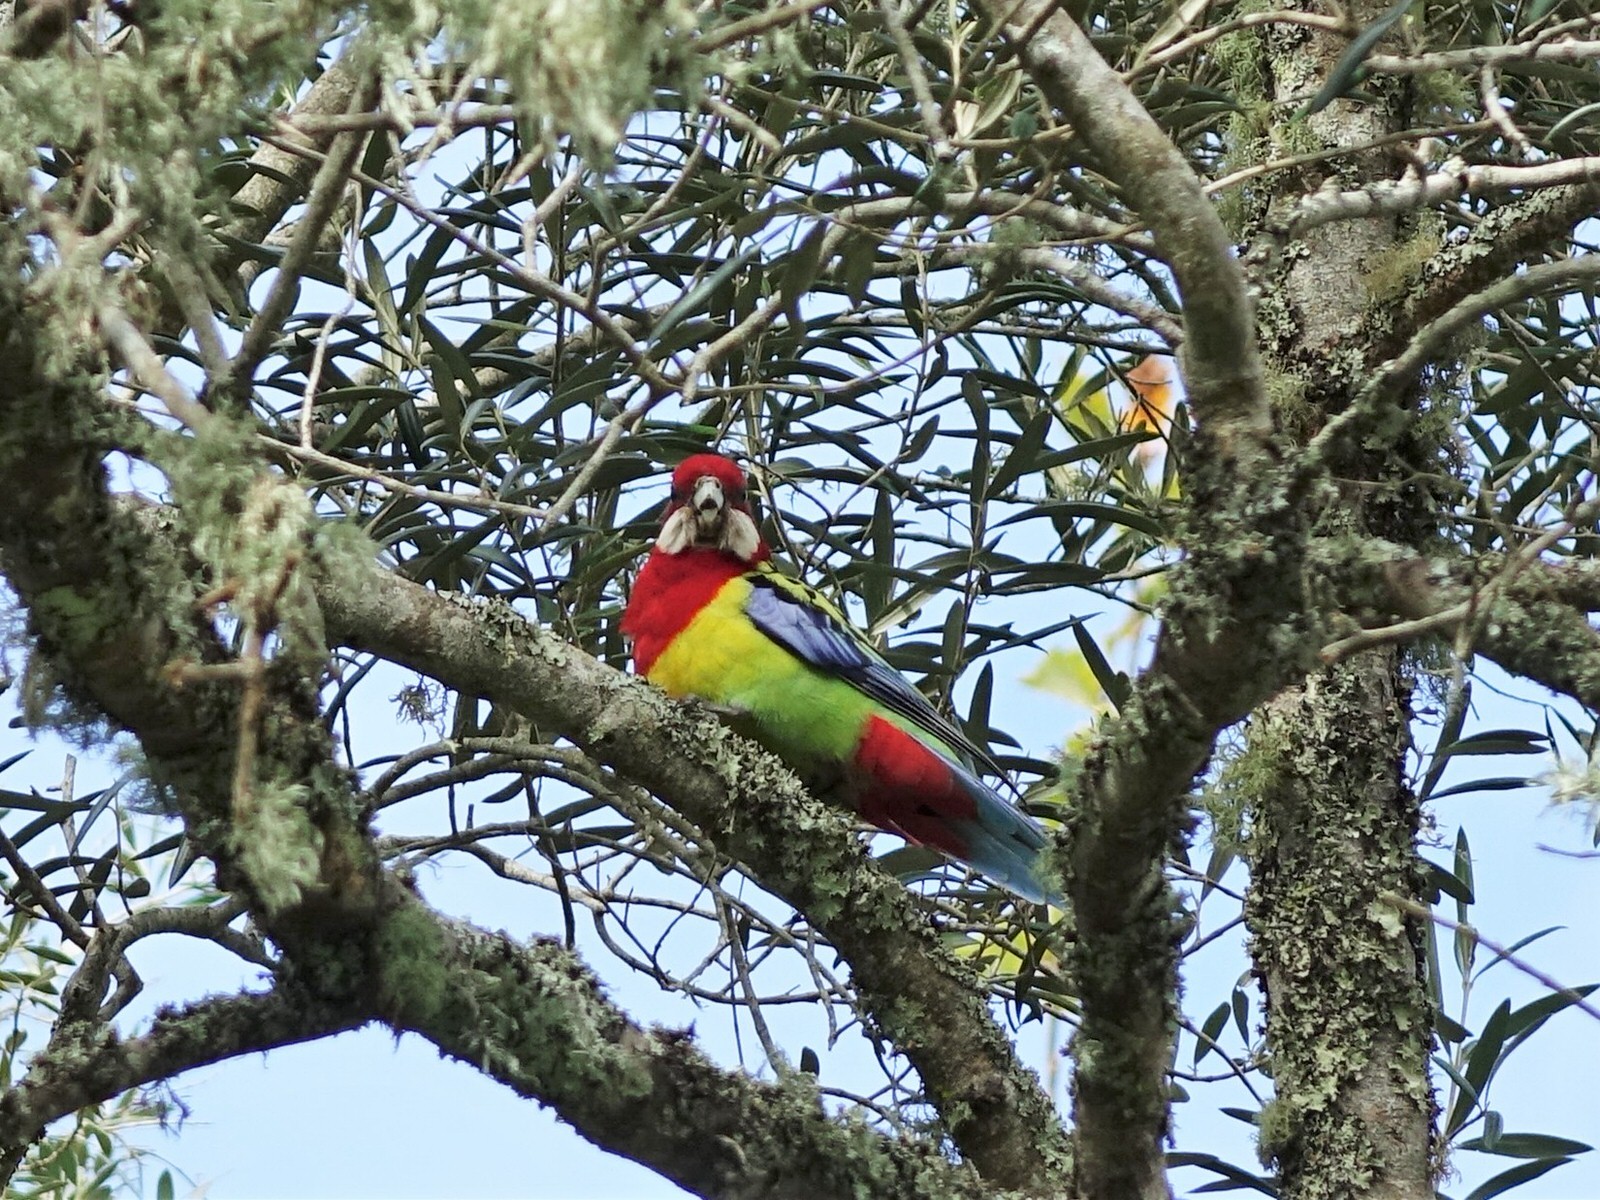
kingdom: Animalia
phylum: Chordata
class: Aves
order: Psittaciformes
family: Psittacidae
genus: Platycercus
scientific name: Platycercus eximius
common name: Eastern rosella
